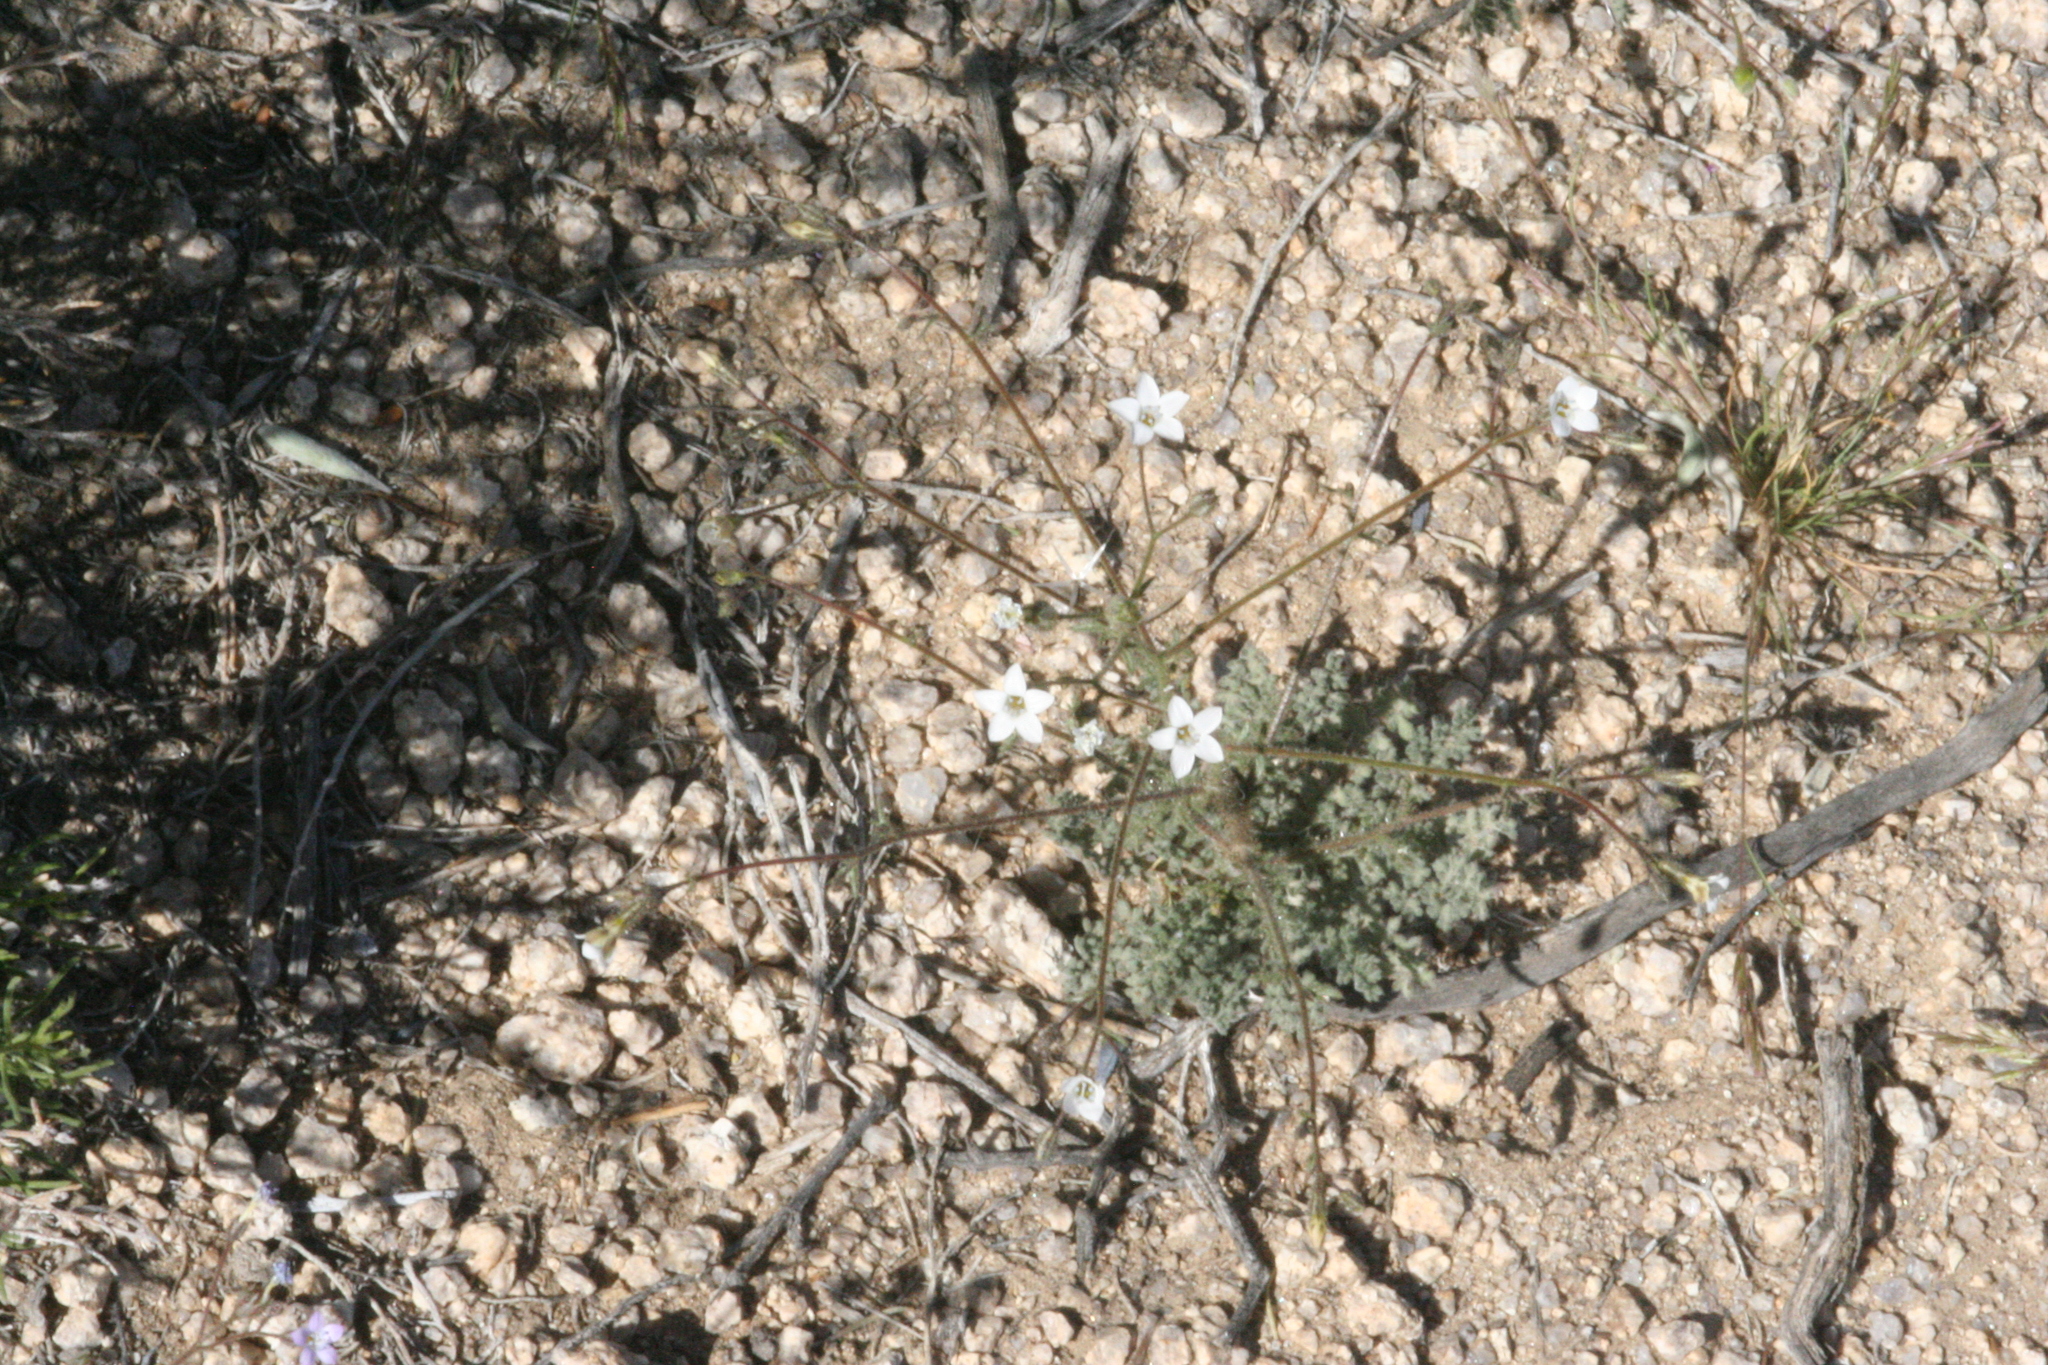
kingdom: Plantae
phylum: Tracheophyta
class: Magnoliopsida
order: Ericales
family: Polemoniaceae
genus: Gilia
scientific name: Gilia stellata
